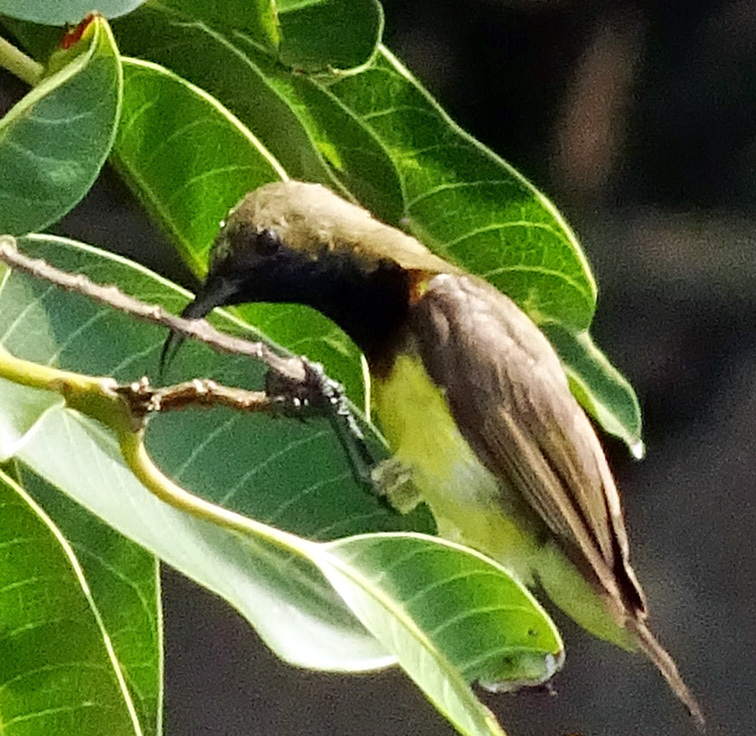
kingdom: Animalia
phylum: Chordata
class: Aves
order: Passeriformes
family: Nectariniidae
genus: Cinnyris
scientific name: Cinnyris
